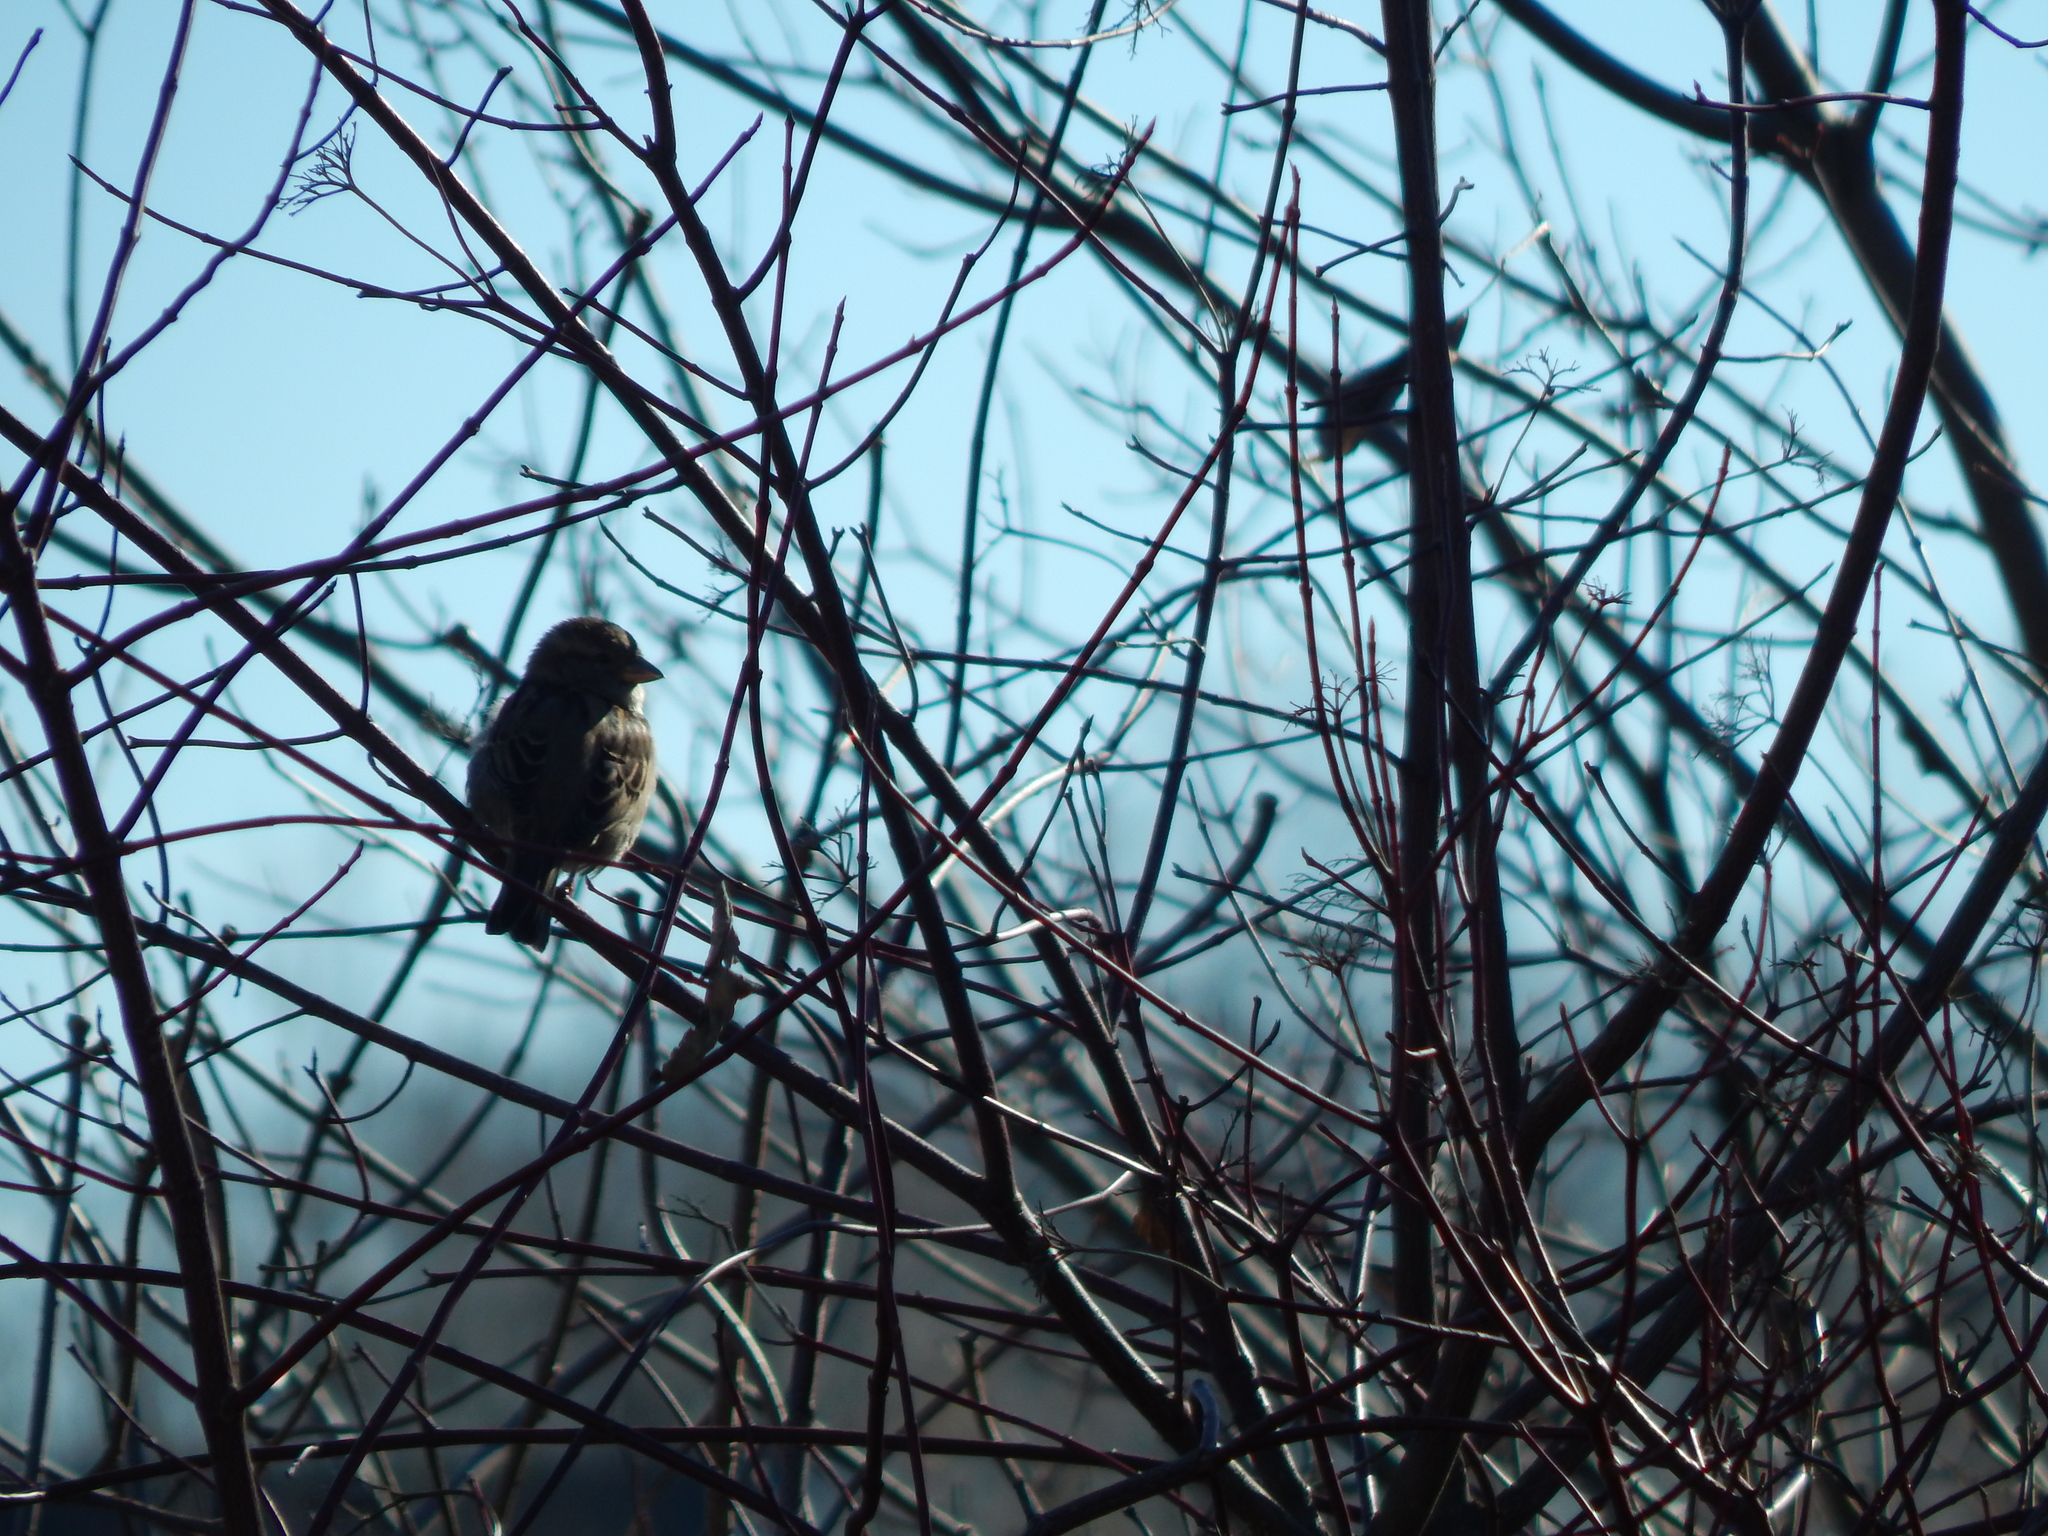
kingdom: Animalia
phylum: Chordata
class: Aves
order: Passeriformes
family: Passeridae
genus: Passer
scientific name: Passer domesticus
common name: House sparrow
